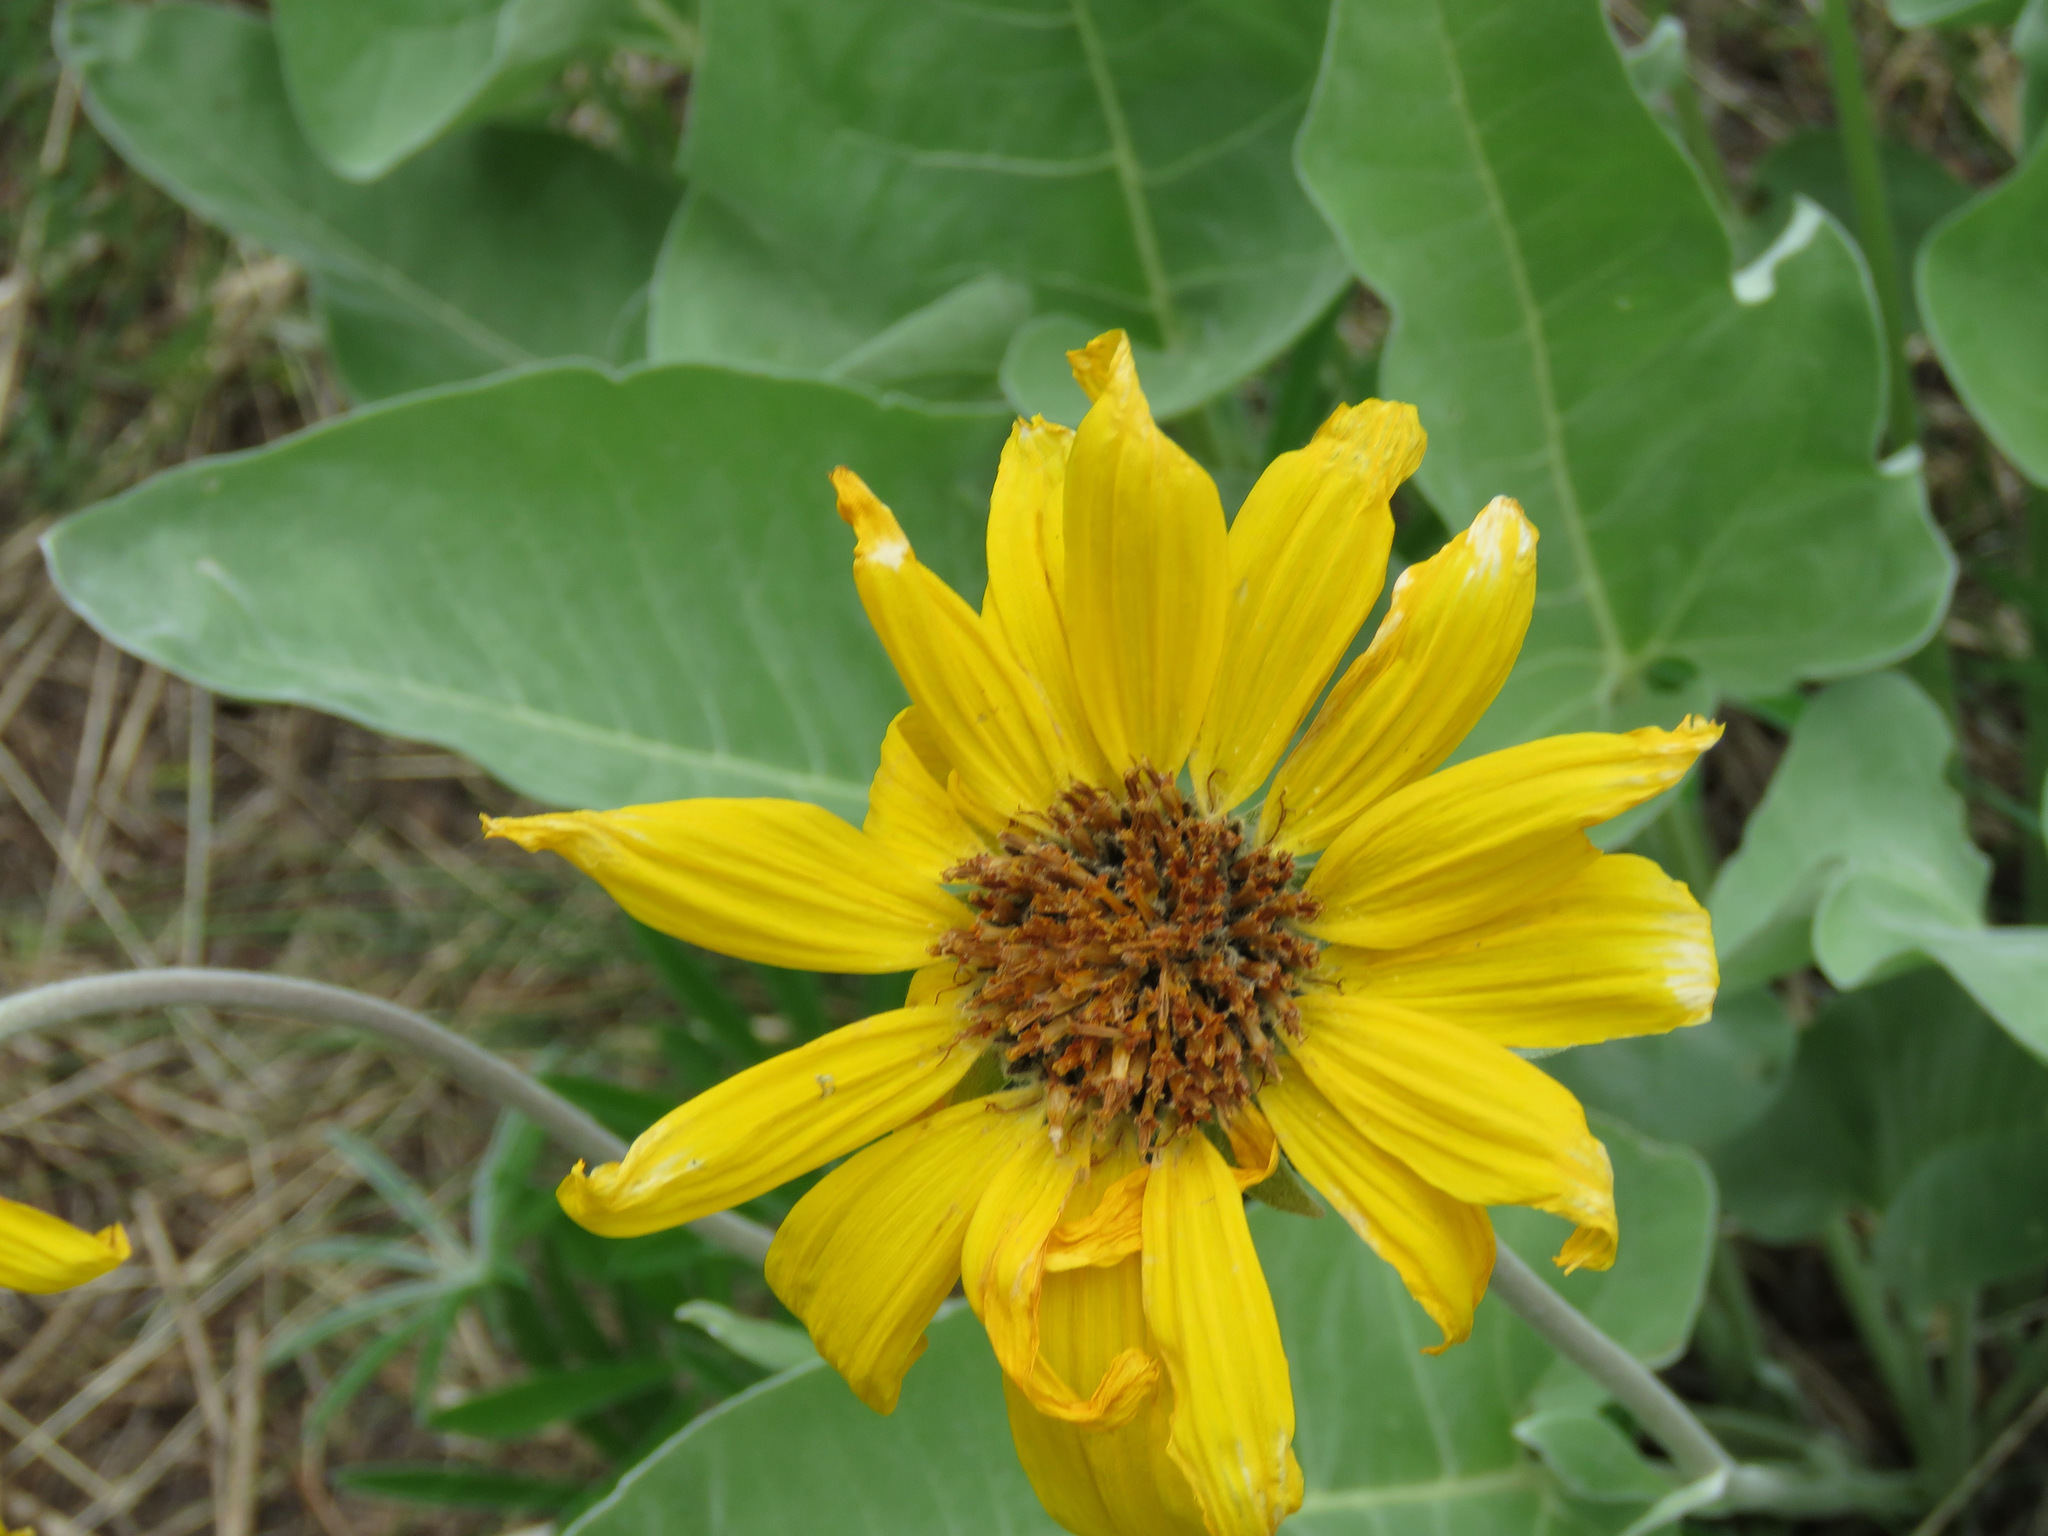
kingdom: Plantae
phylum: Tracheophyta
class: Magnoliopsida
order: Asterales
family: Asteraceae
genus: Wyethia
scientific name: Wyethia sagittata
